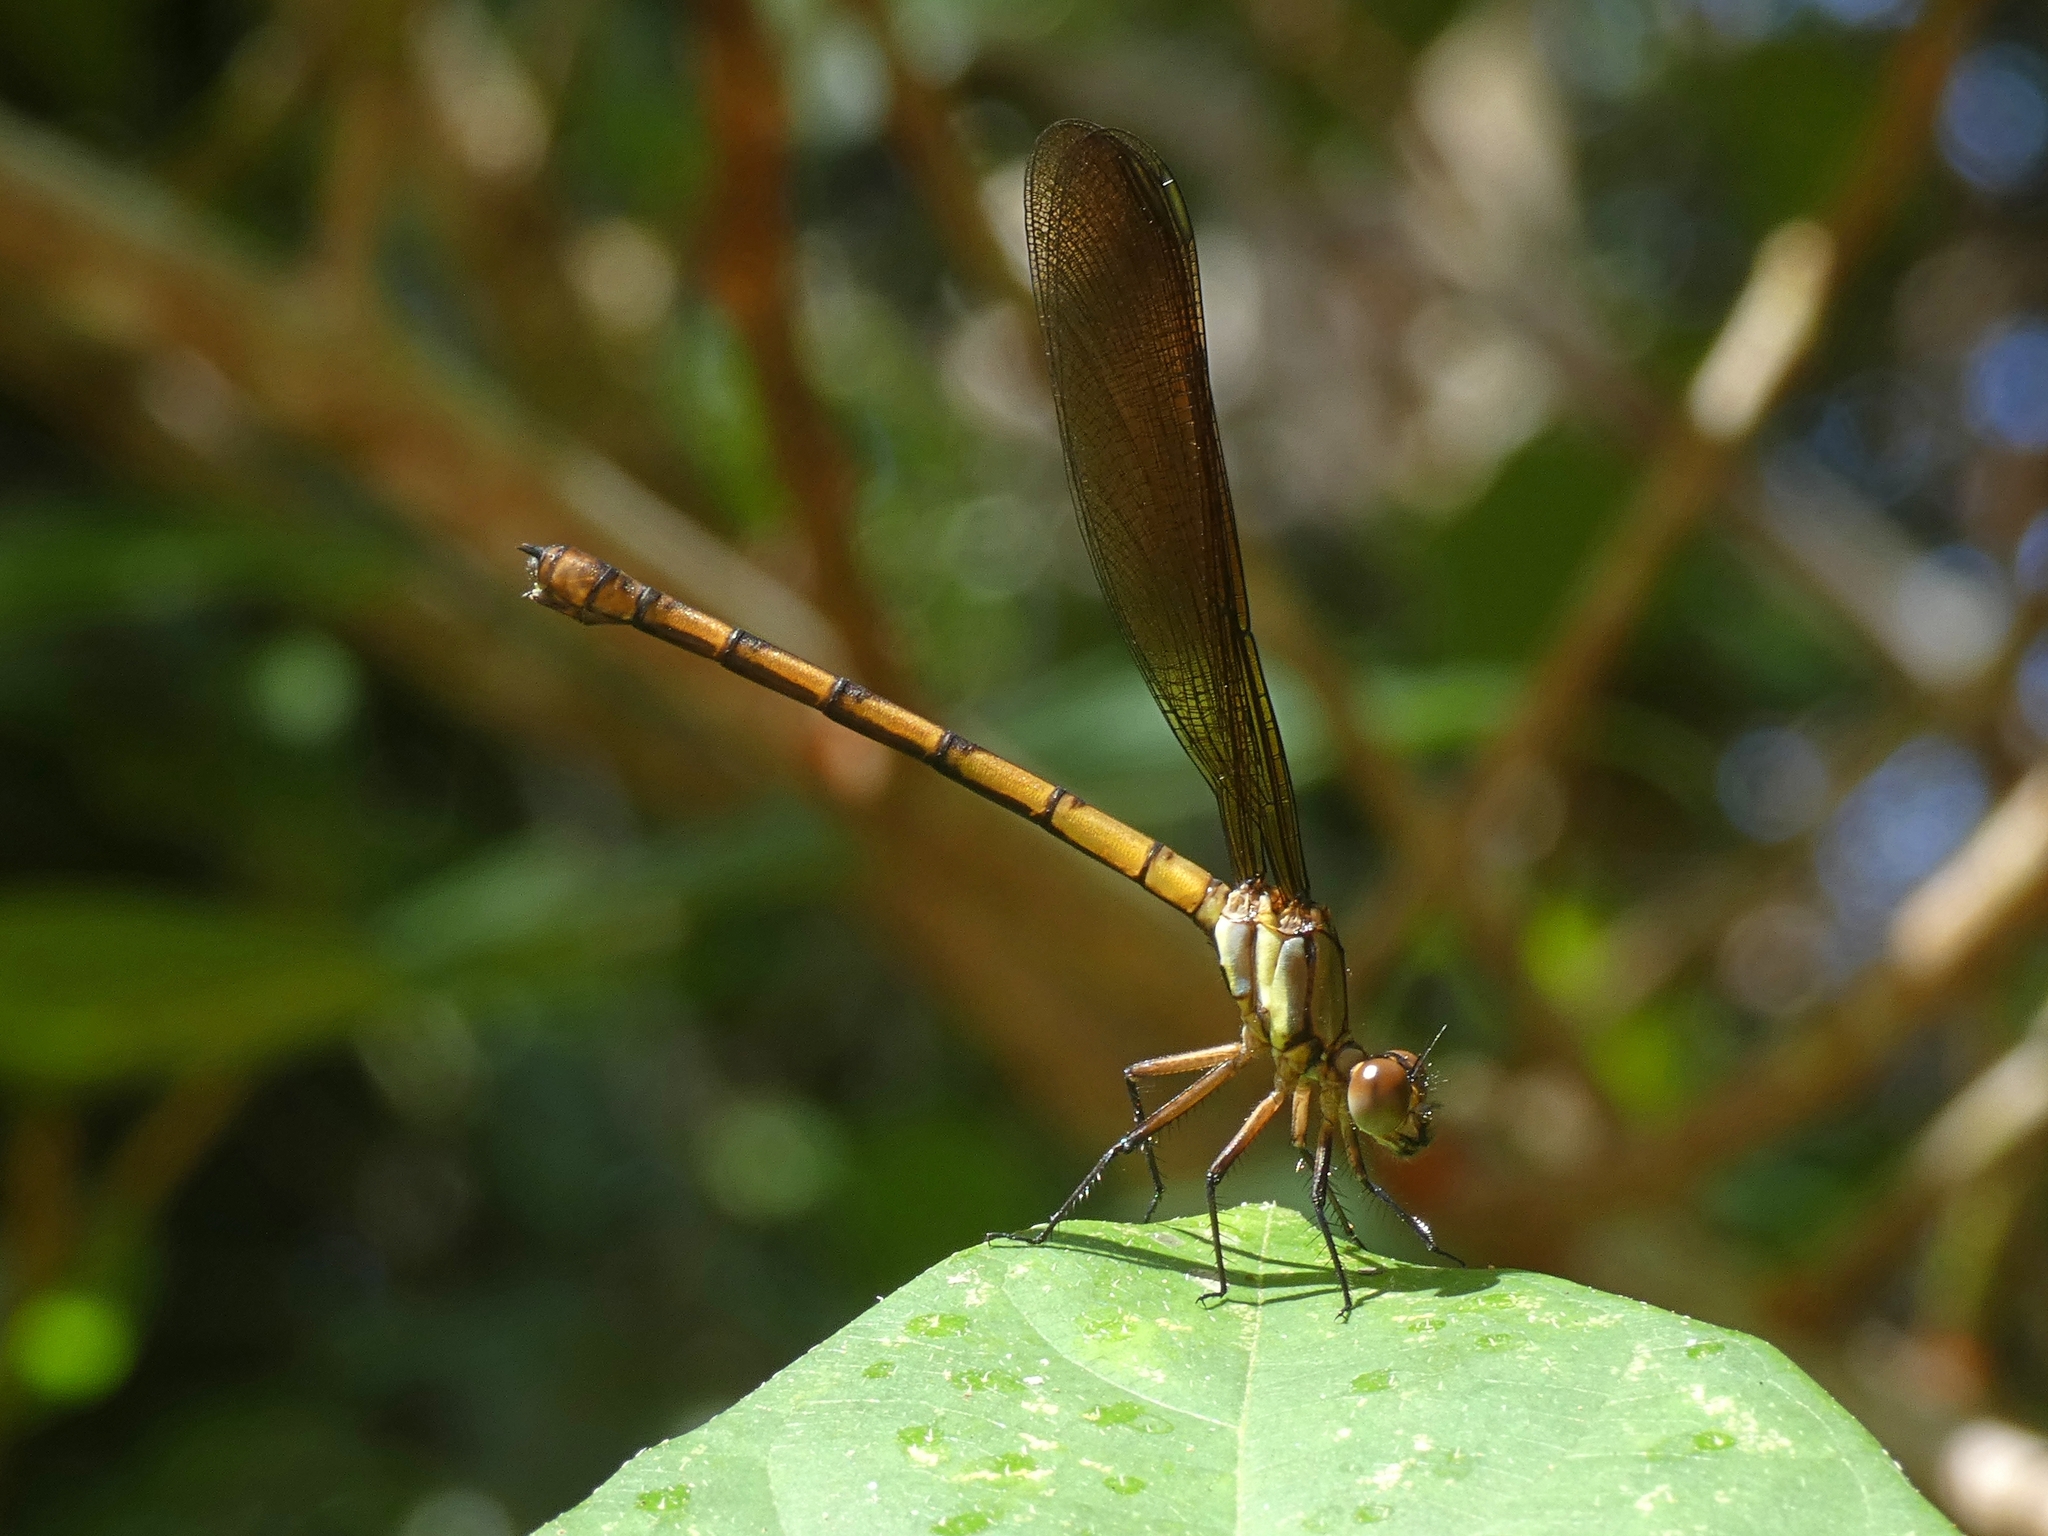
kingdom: Animalia
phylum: Arthropoda
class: Insecta
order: Odonata
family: Lestoideidae
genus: Diphlebia
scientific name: Diphlebia euphoeoides
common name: Tropical rockmaster
